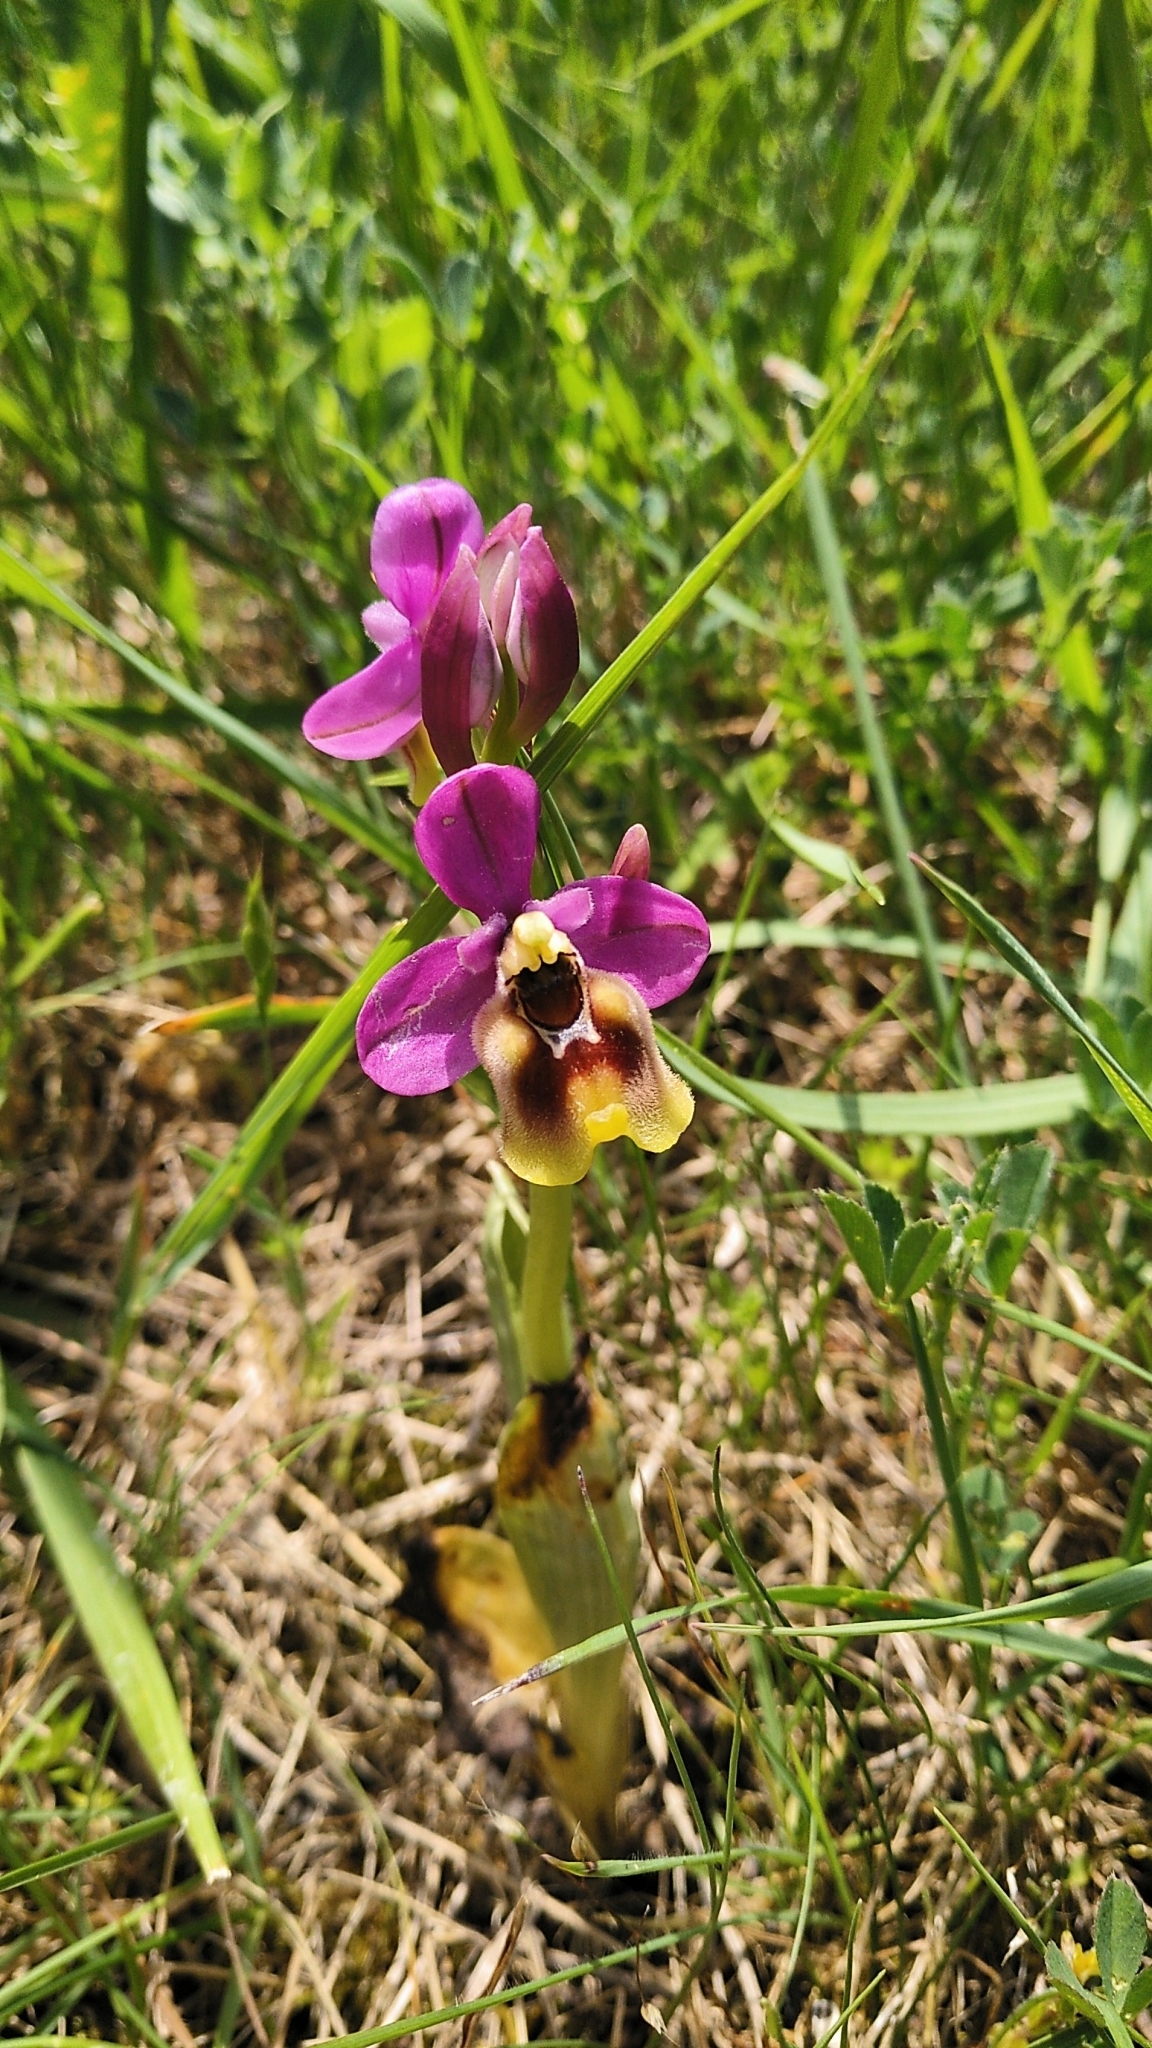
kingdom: Plantae
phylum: Tracheophyta
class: Liliopsida
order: Asparagales
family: Orchidaceae
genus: Ophrys
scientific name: Ophrys tenthredinifera
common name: Sawfly orchid
